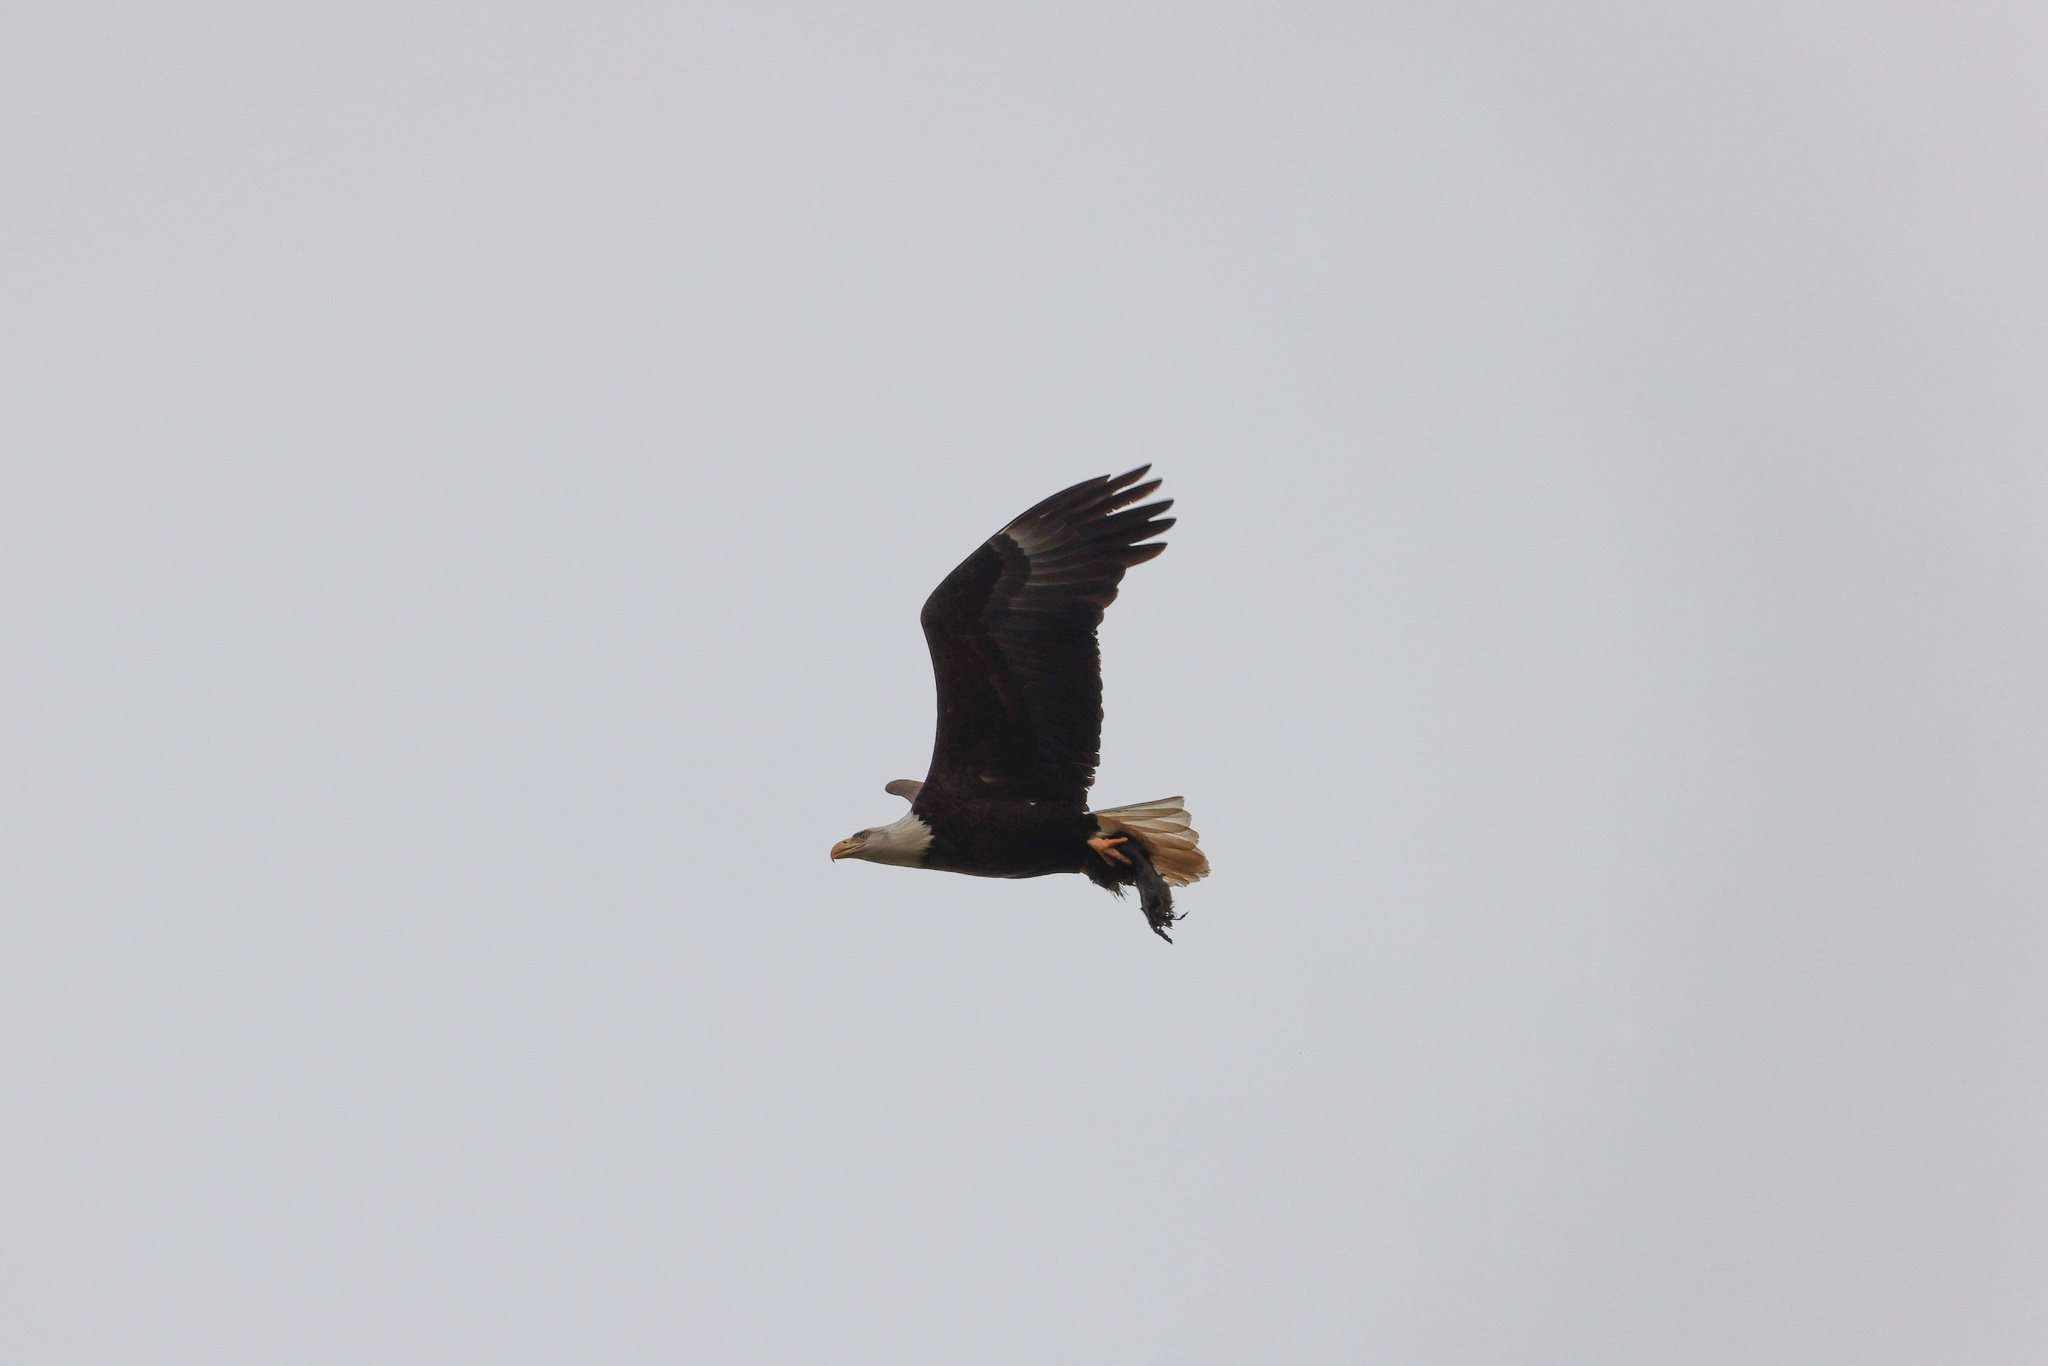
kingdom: Animalia
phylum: Chordata
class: Aves
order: Accipitriformes
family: Accipitridae
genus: Haliaeetus
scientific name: Haliaeetus leucocephalus
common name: Bald eagle
